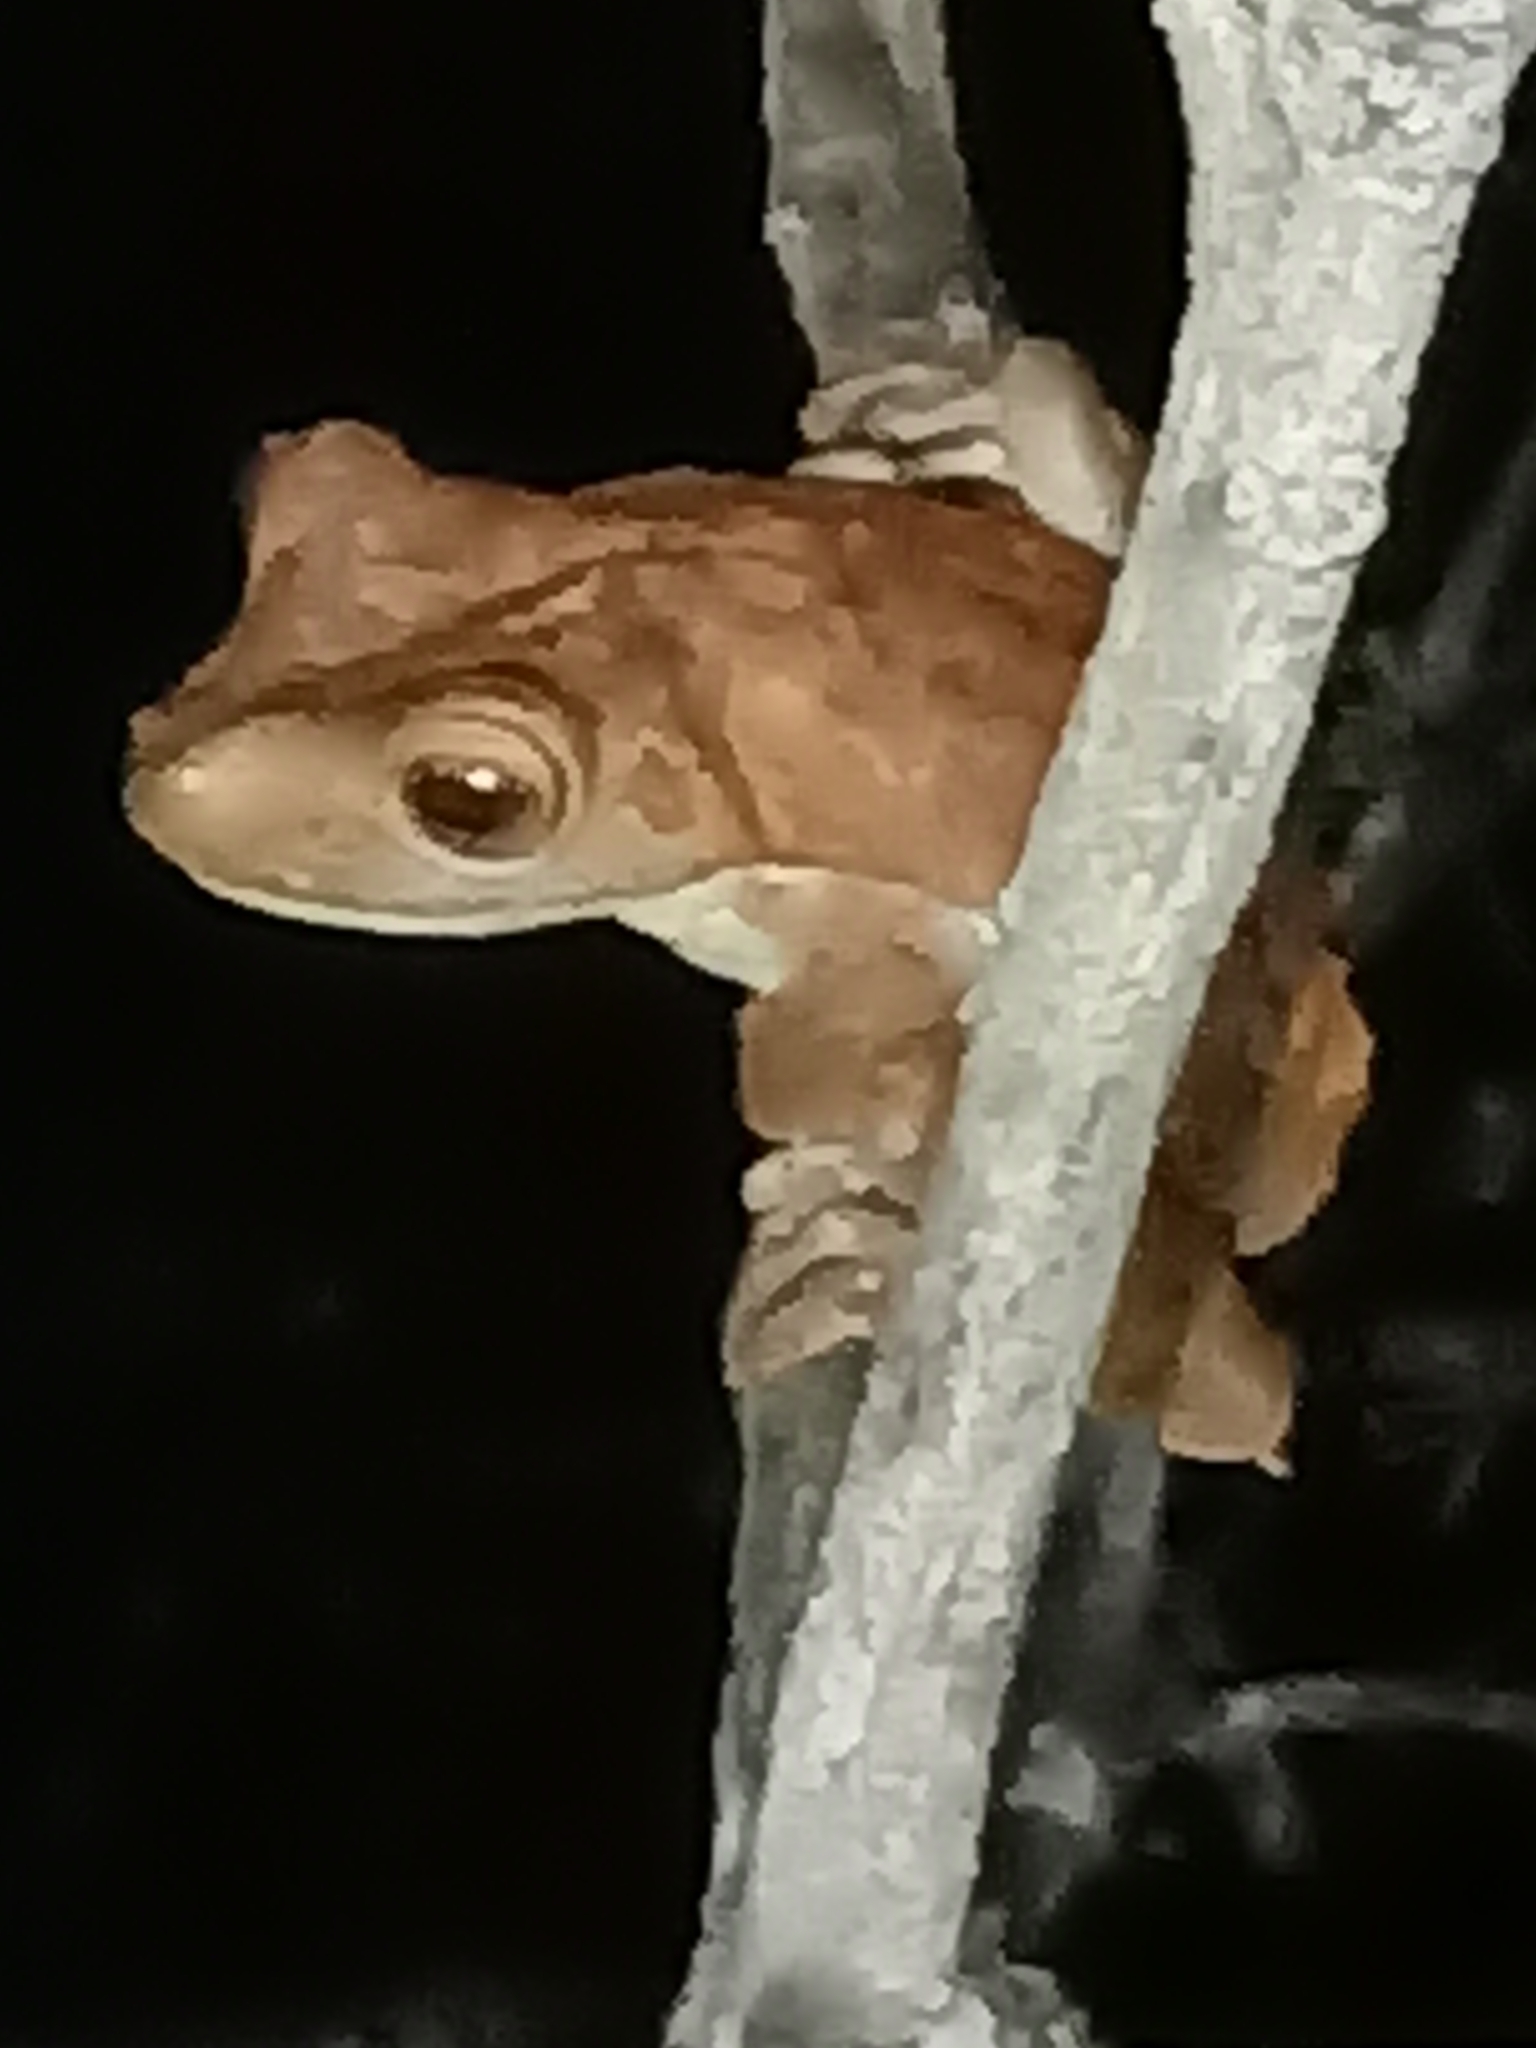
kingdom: Animalia
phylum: Chordata
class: Amphibia
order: Anura
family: Hylidae
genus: Boana
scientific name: Boana boans
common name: Giant gladiator treefrog
